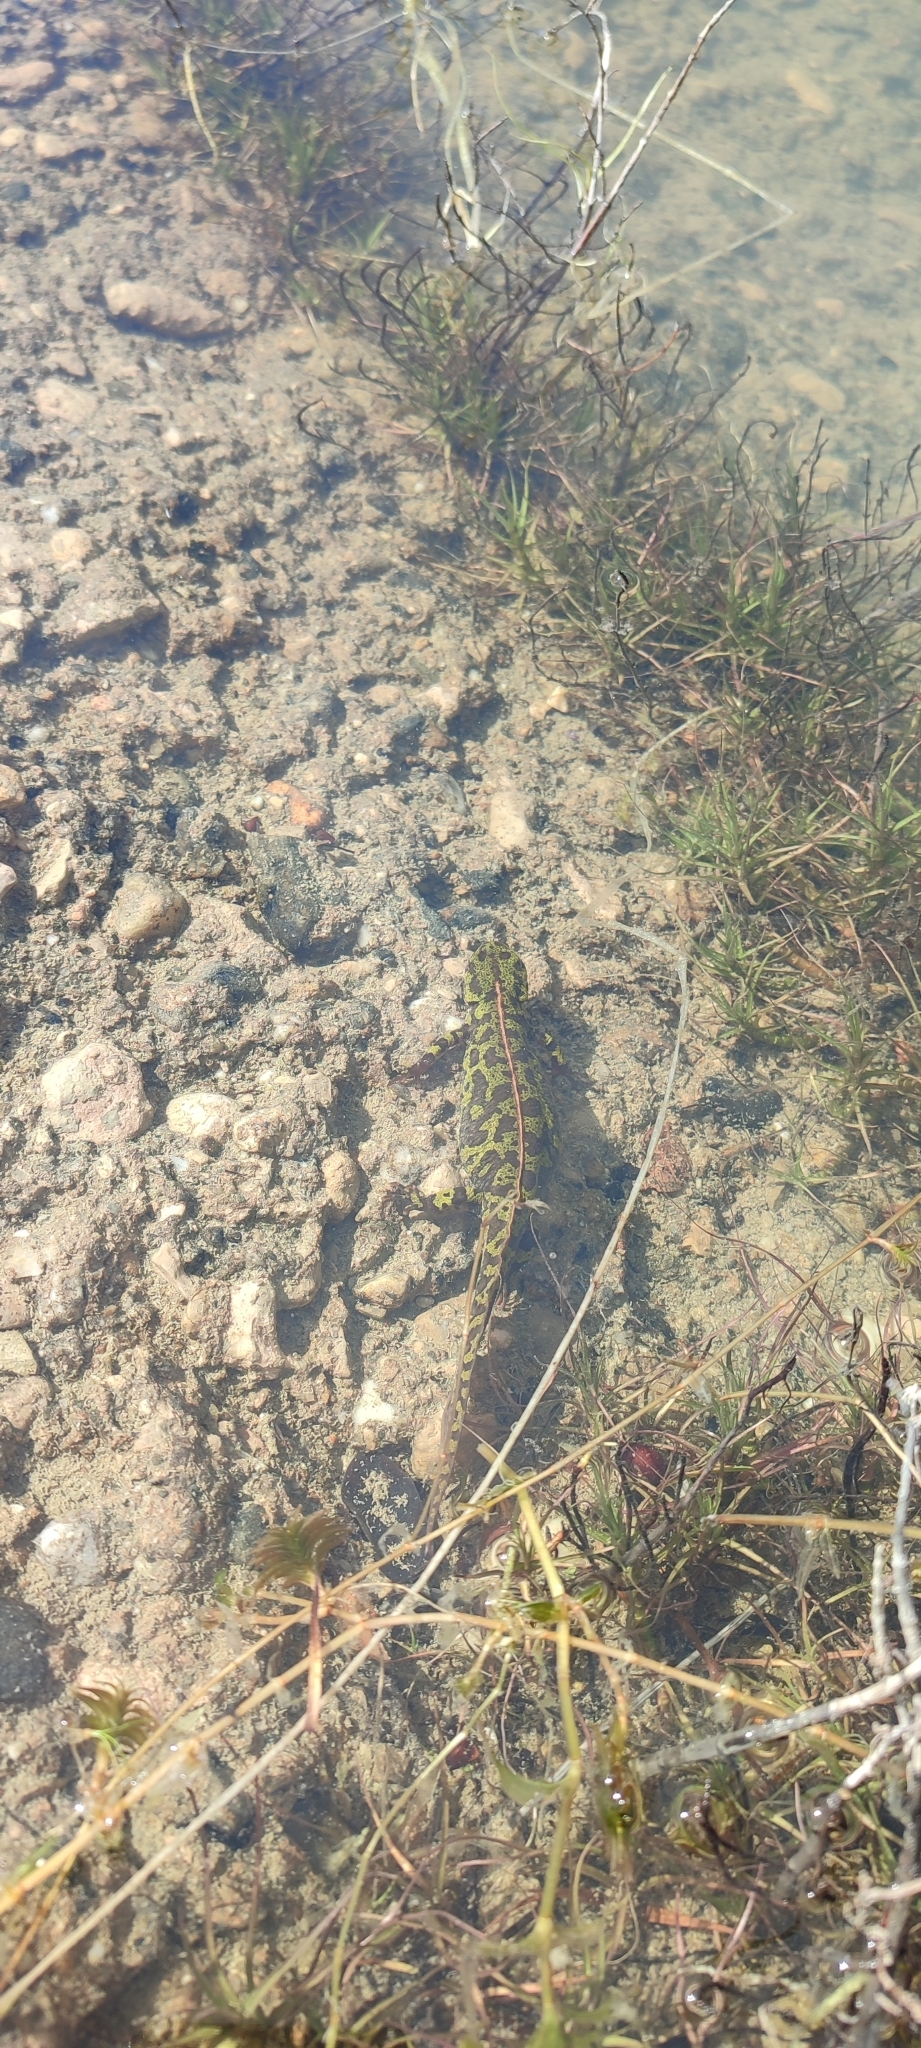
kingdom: Animalia
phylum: Chordata
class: Amphibia
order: Caudata
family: Salamandridae
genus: Triturus
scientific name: Triturus marmoratus
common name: Marbled newt
